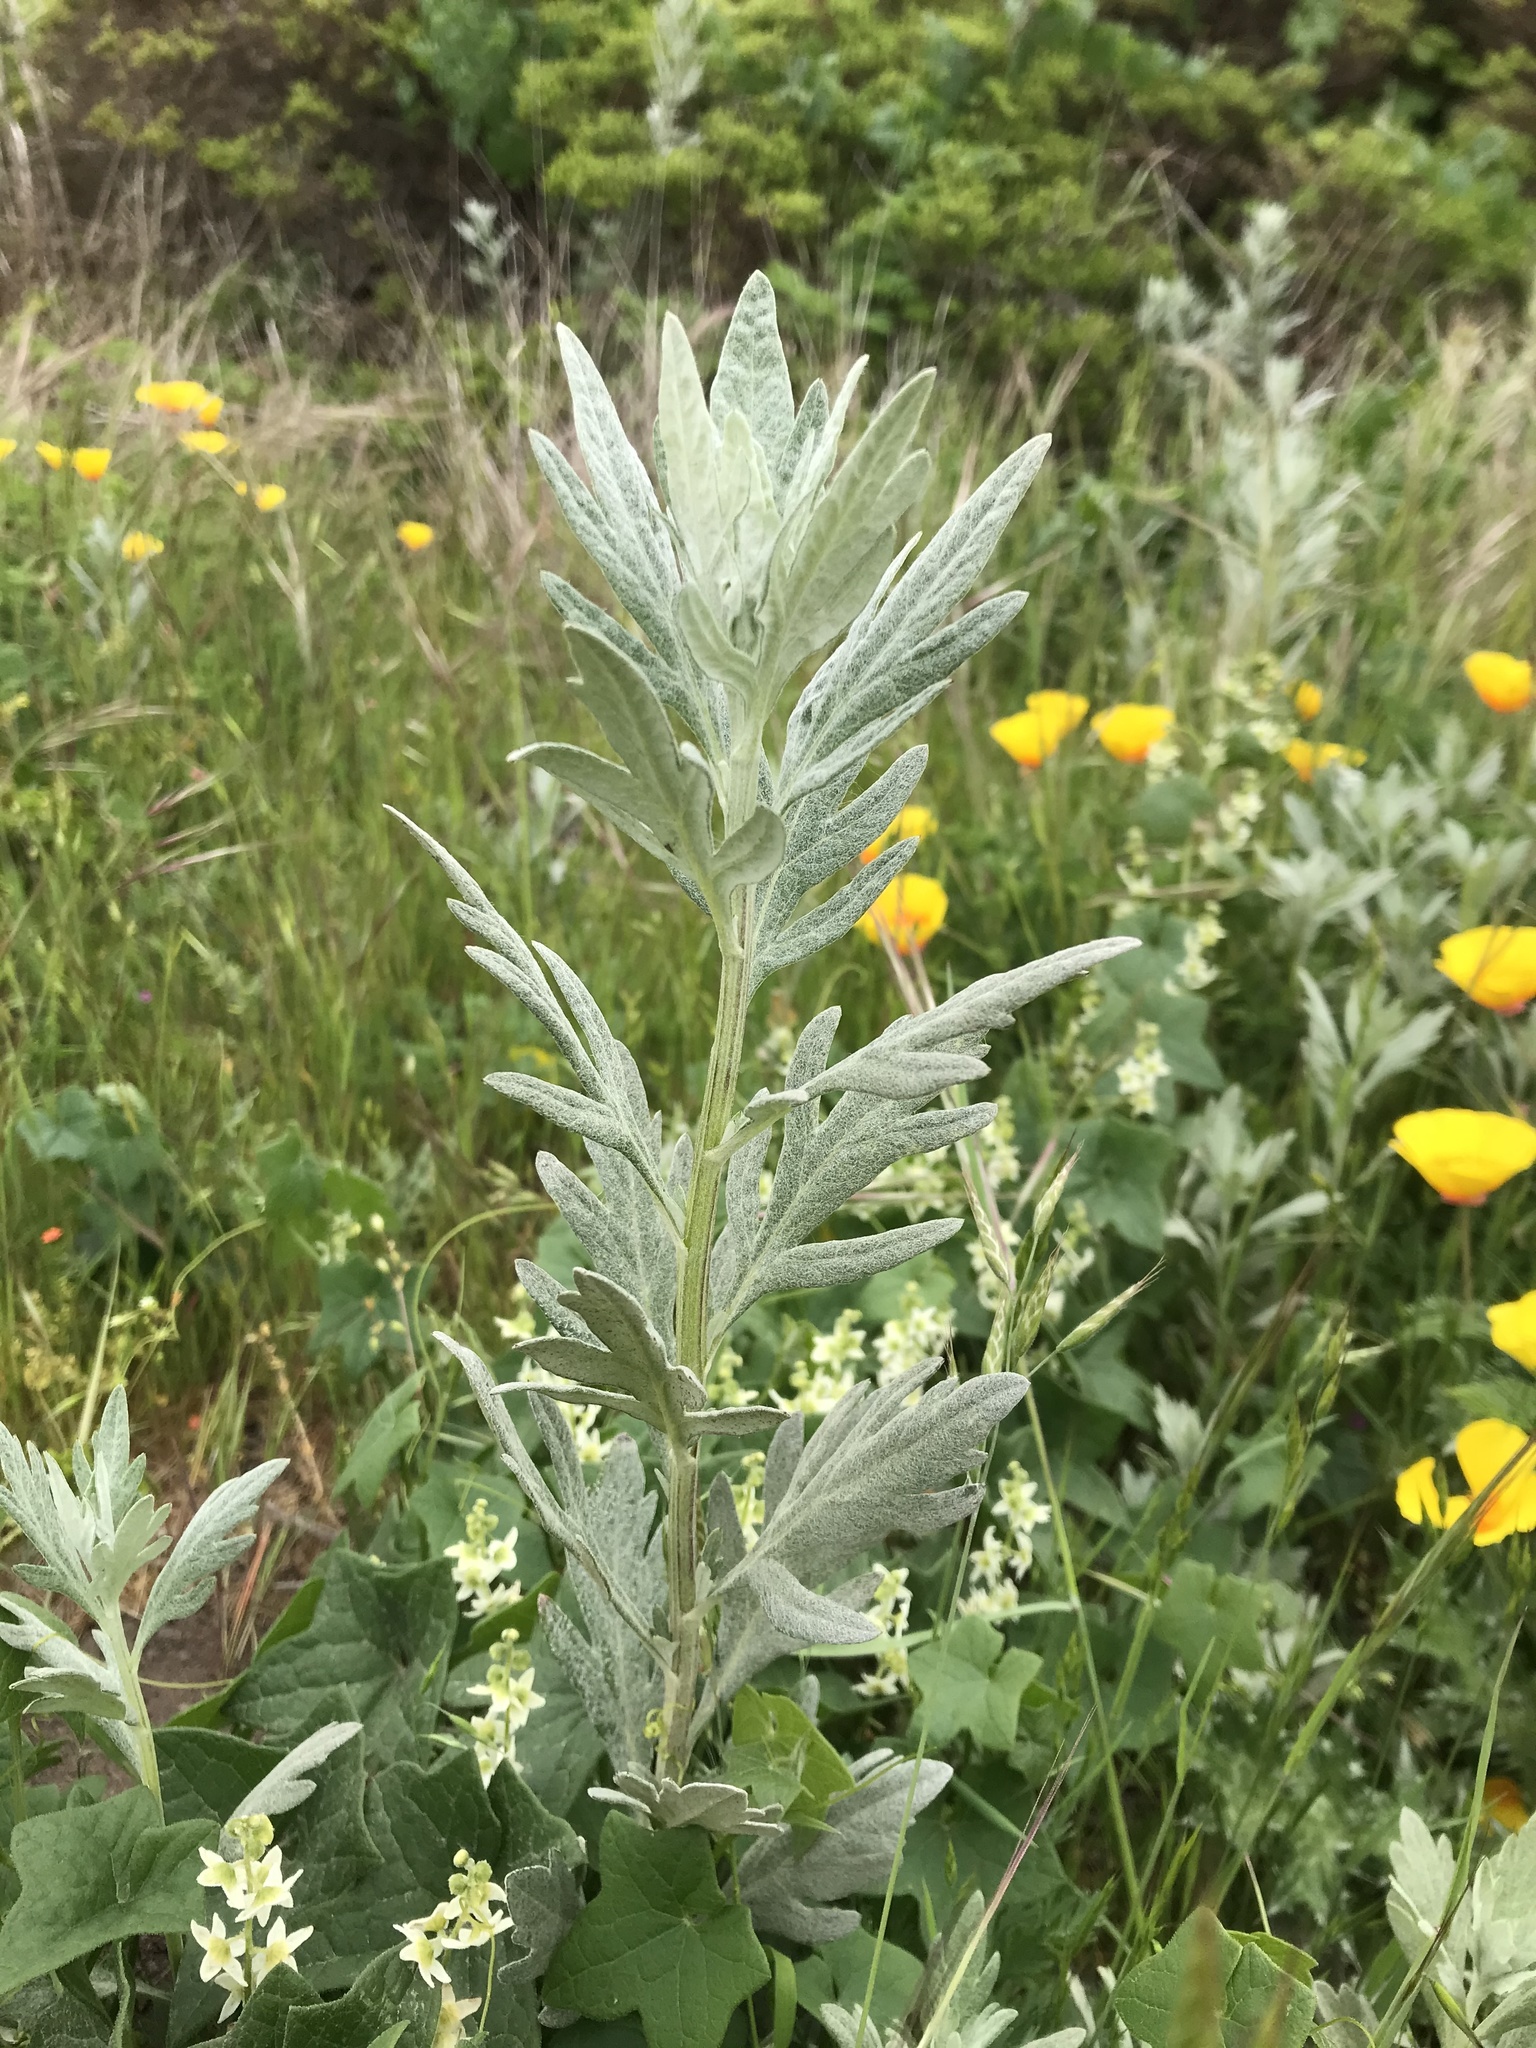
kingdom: Plantae
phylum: Tracheophyta
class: Magnoliopsida
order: Asterales
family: Asteraceae
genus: Artemisia
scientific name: Artemisia douglasiana
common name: Northwest mugwort
